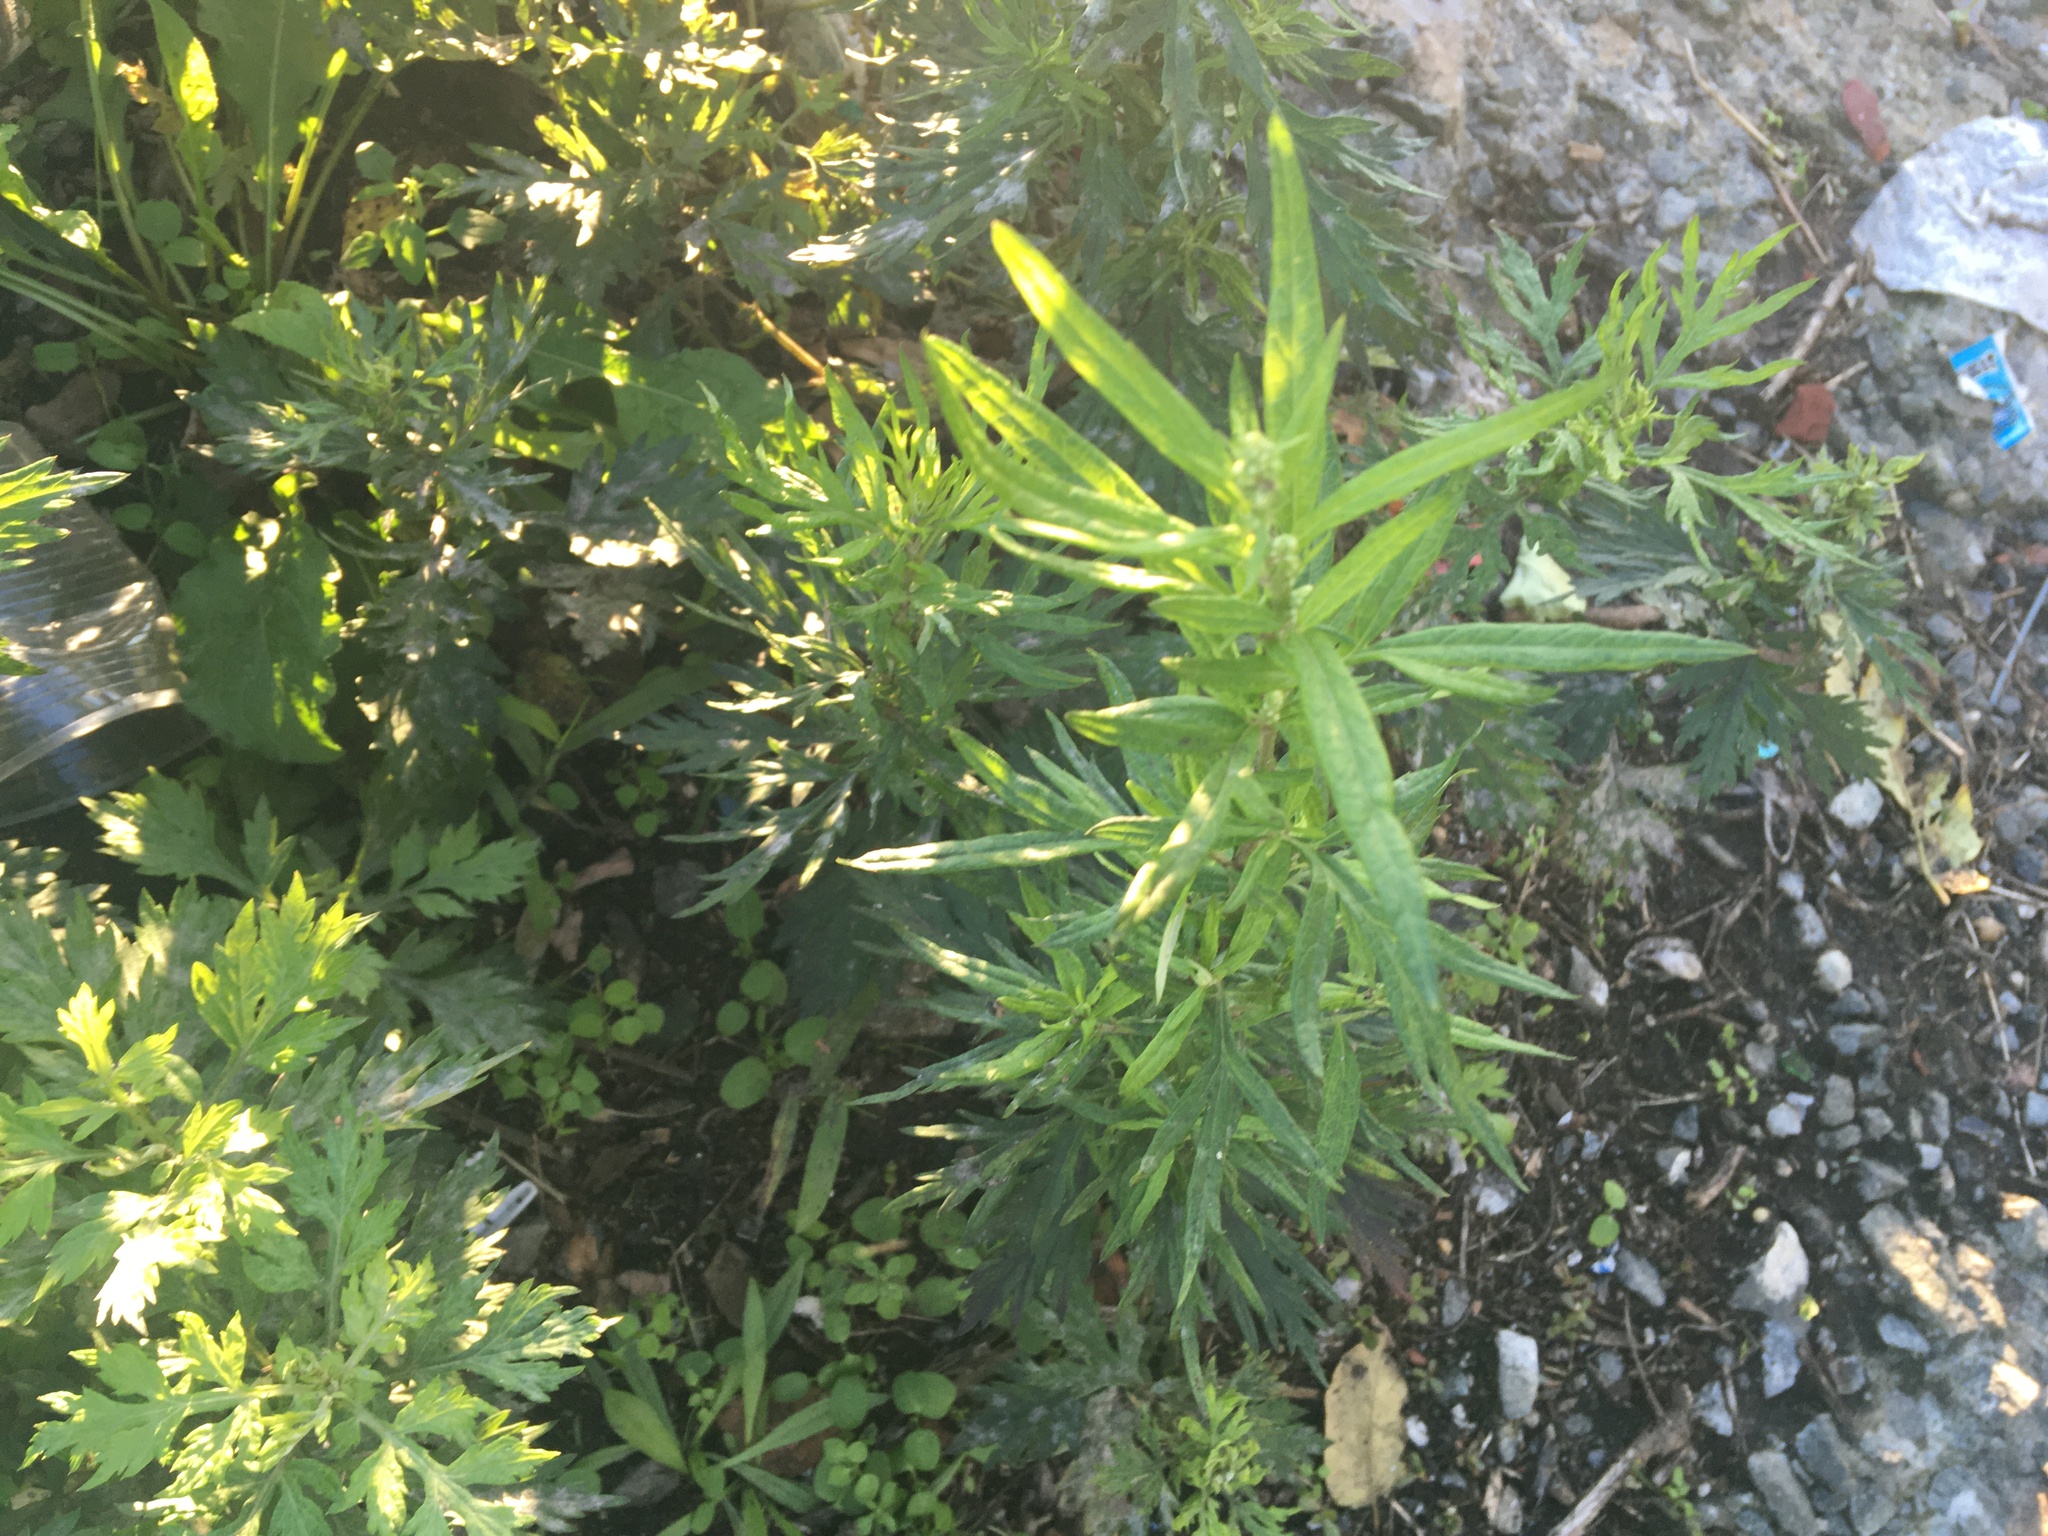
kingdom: Plantae
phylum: Tracheophyta
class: Magnoliopsida
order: Asterales
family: Asteraceae
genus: Artemisia
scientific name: Artemisia vulgaris
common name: Mugwort
